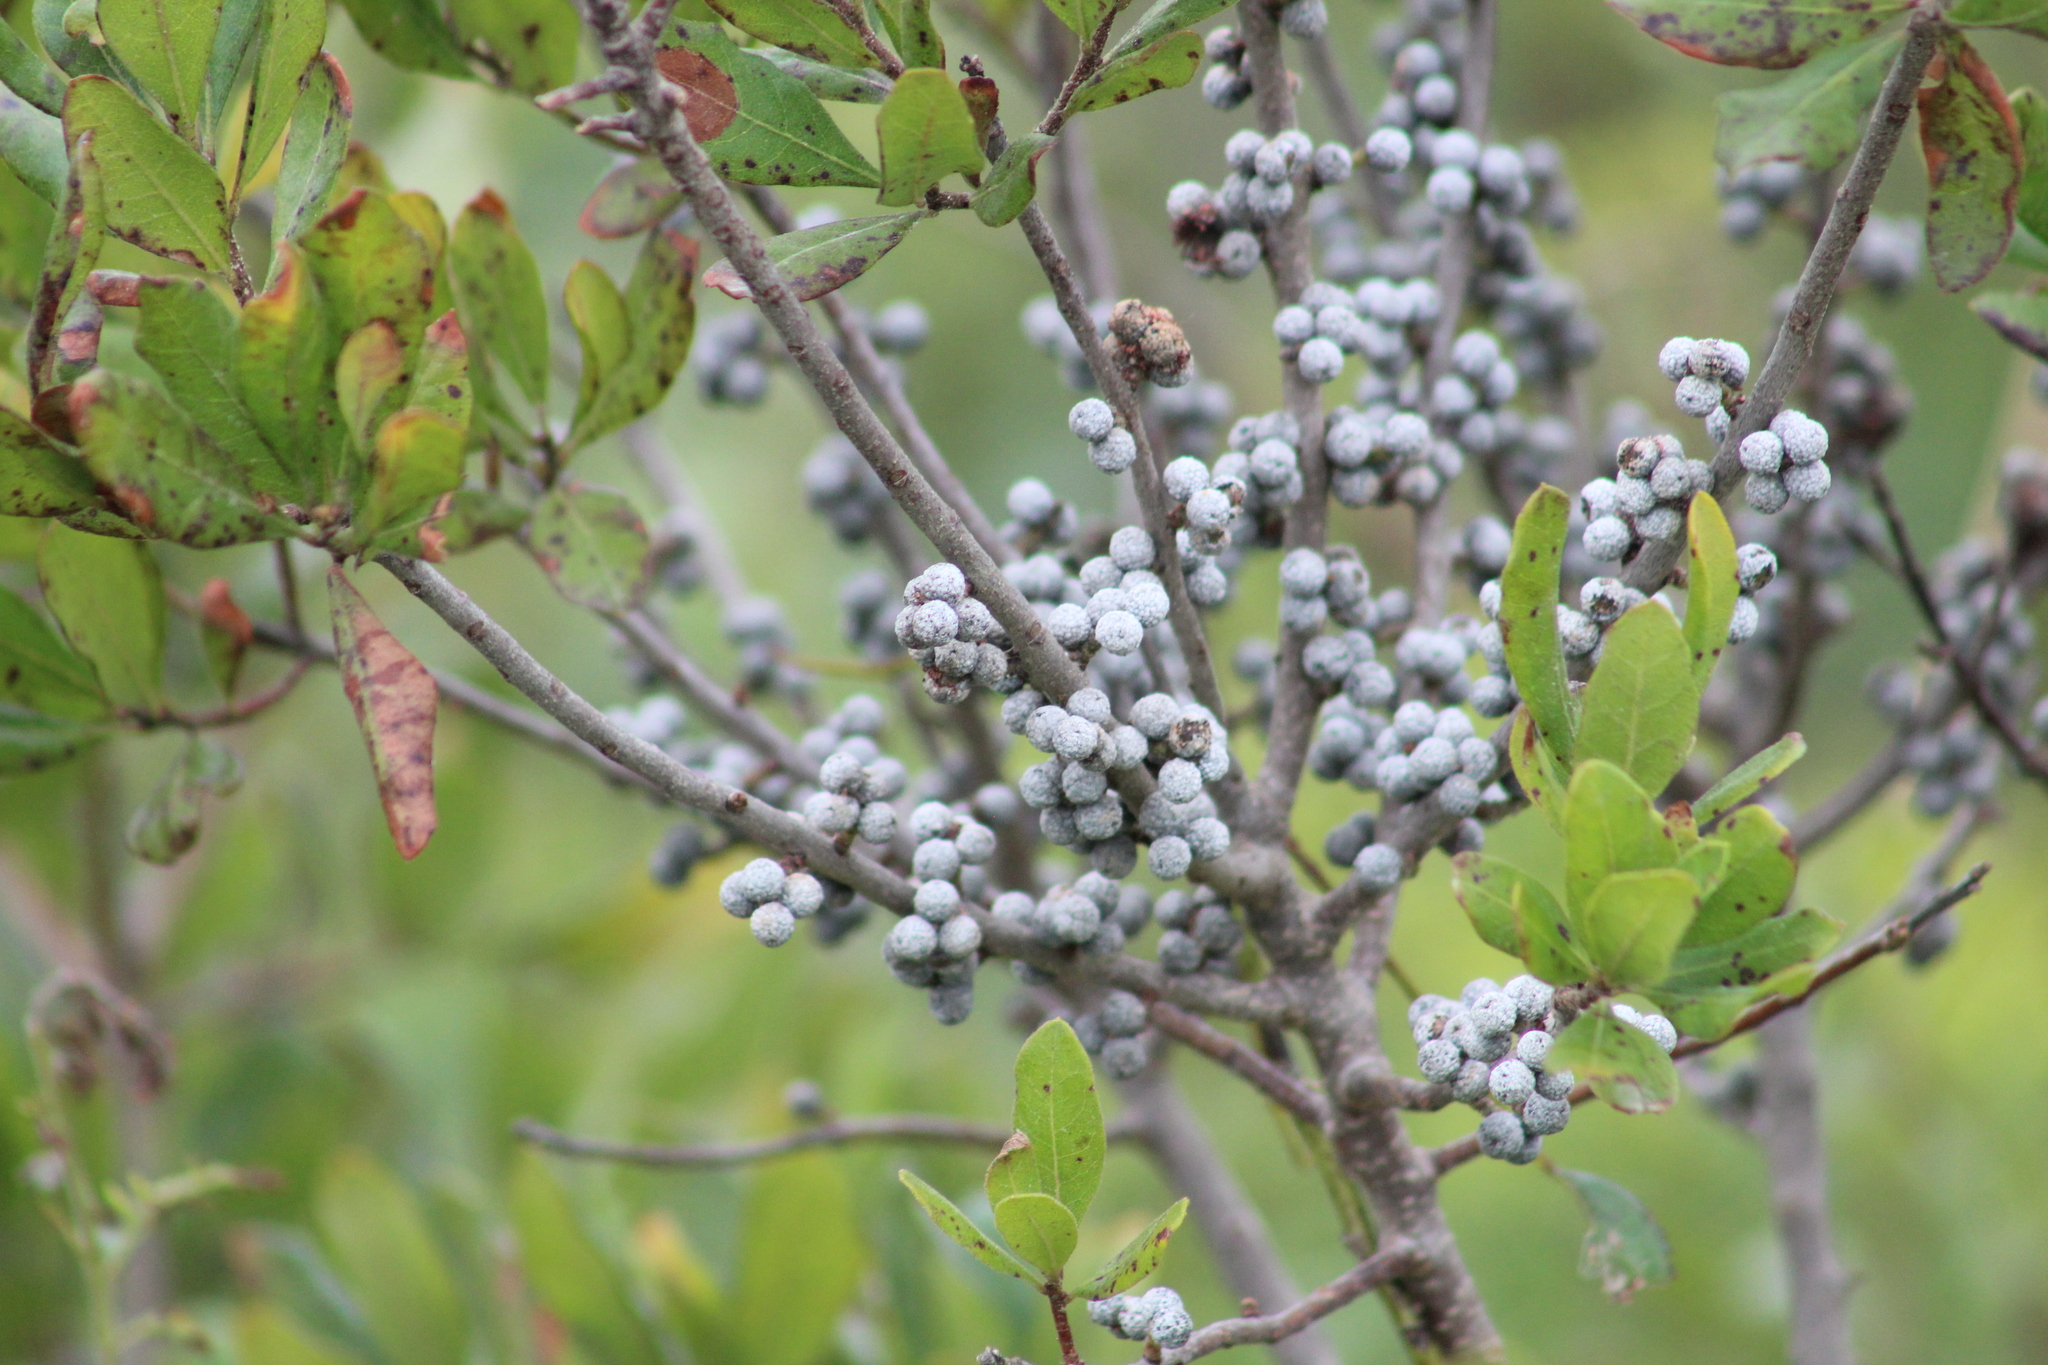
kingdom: Plantae
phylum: Tracheophyta
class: Magnoliopsida
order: Fagales
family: Myricaceae
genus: Morella
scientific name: Morella pensylvanica
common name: Northern bayberry
